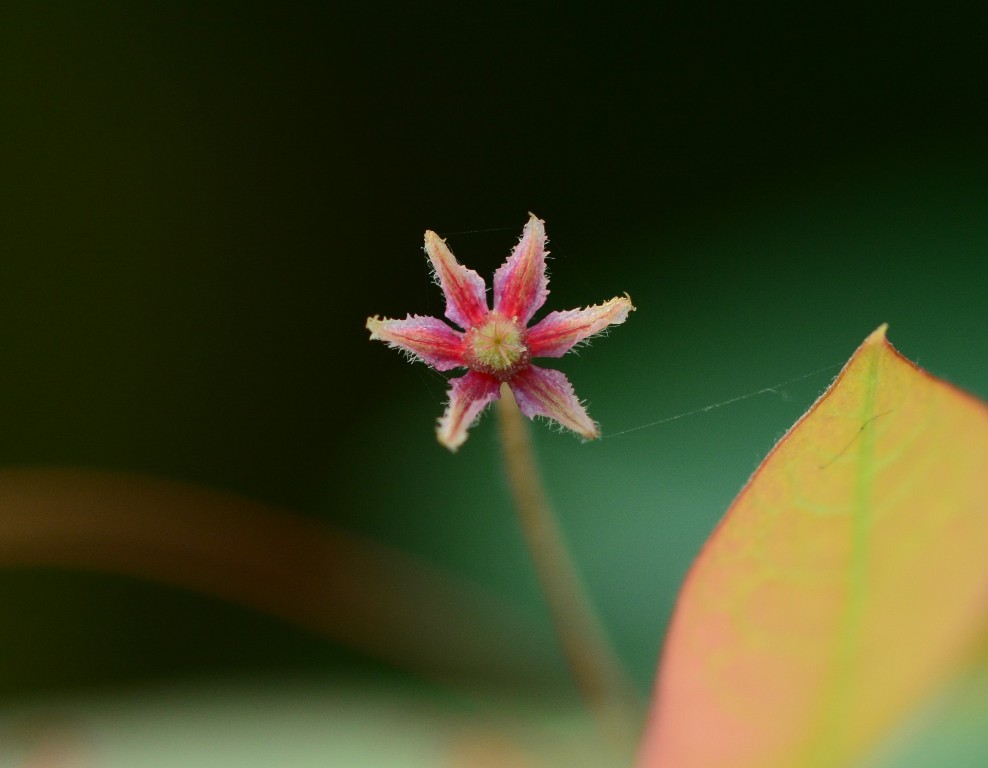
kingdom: Plantae
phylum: Tracheophyta
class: Magnoliopsida
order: Malpighiales
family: Phyllanthaceae
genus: Phyllanthus
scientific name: Phyllanthus sikkimensis
